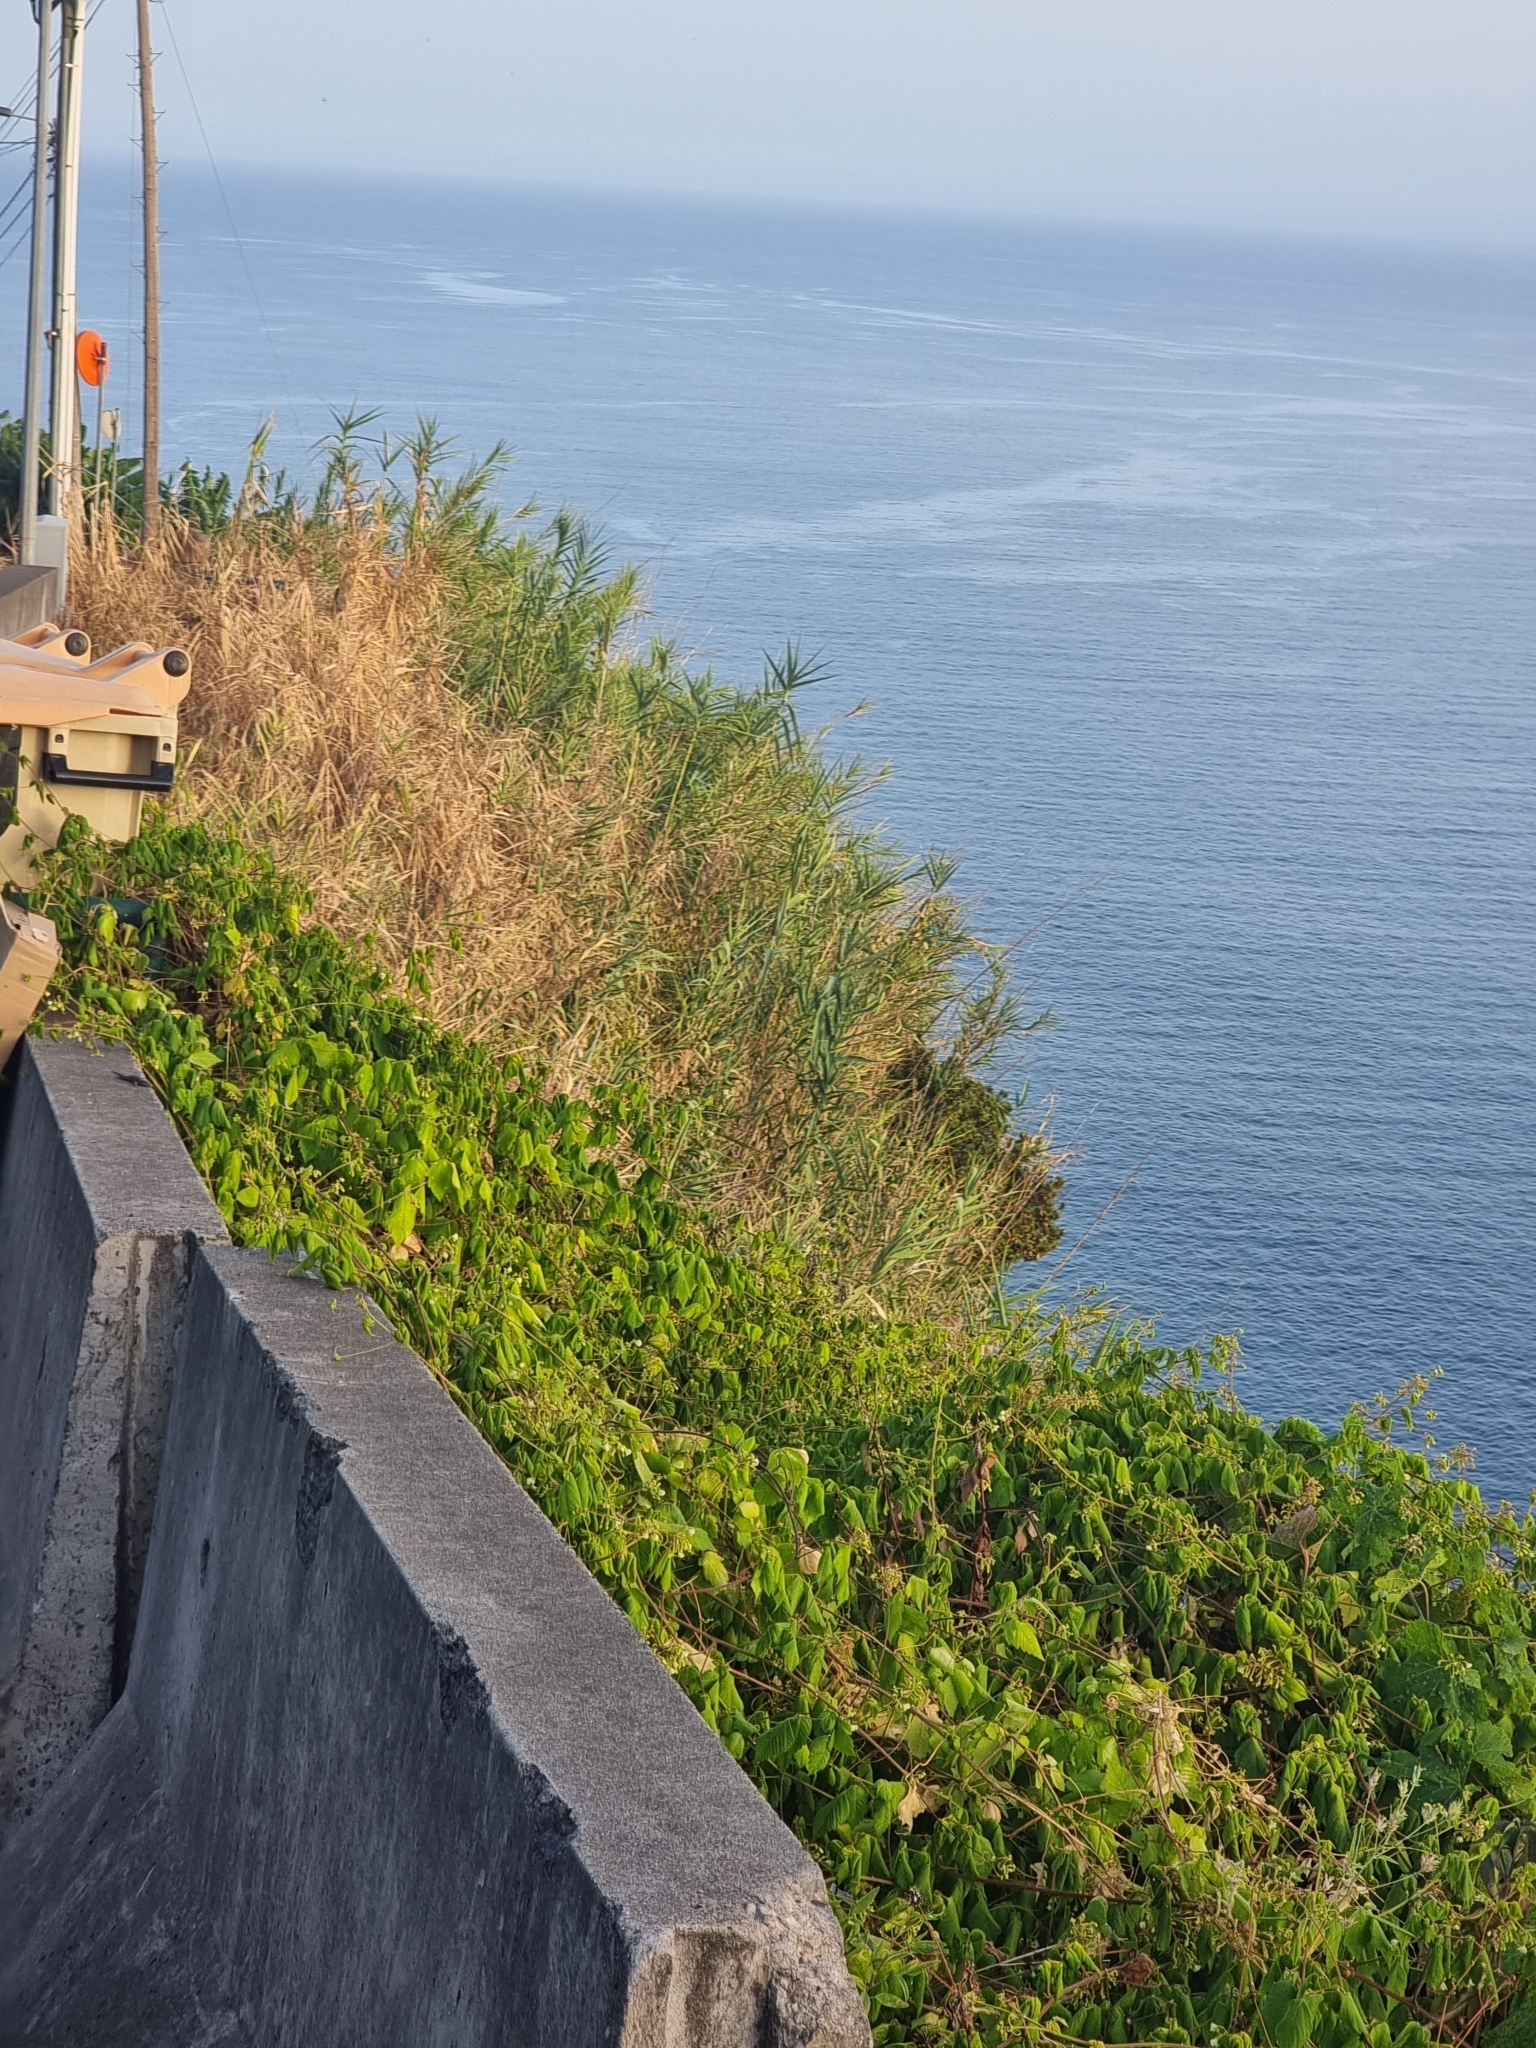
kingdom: Plantae
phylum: Tracheophyta
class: Magnoliopsida
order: Lamiales
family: Plantaginaceae
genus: Globularia
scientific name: Globularia salicina
